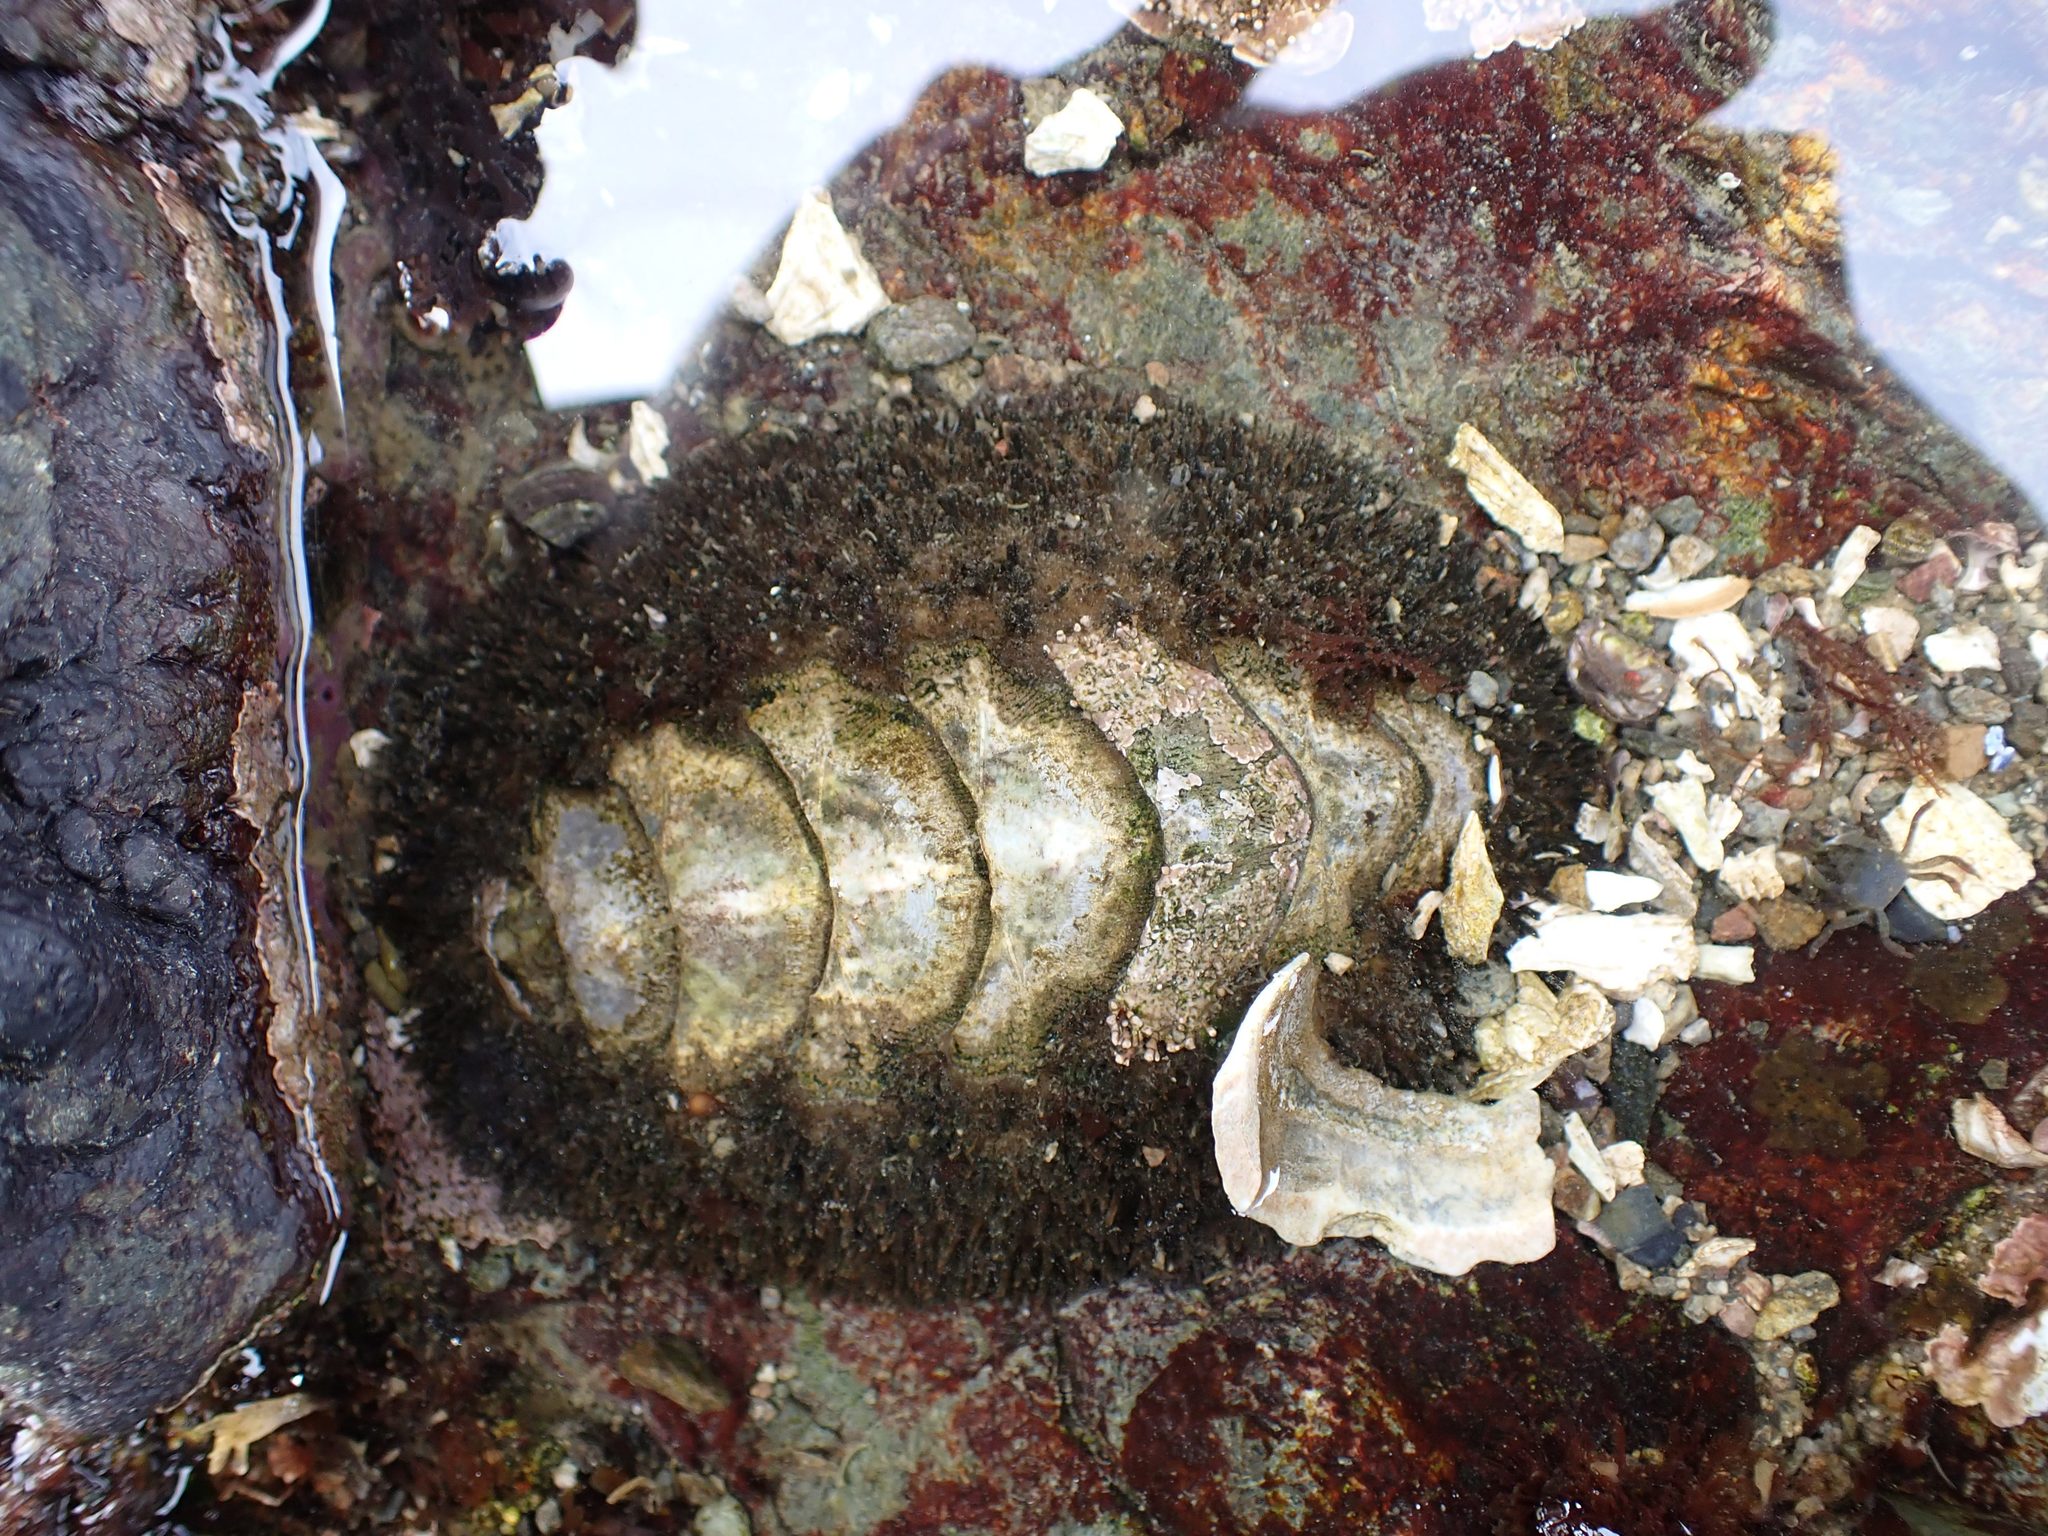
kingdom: Animalia
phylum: Mollusca
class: Polyplacophora
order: Chitonida
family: Mopaliidae
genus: Mopalia
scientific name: Mopalia muscosa
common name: Mossy chiton
